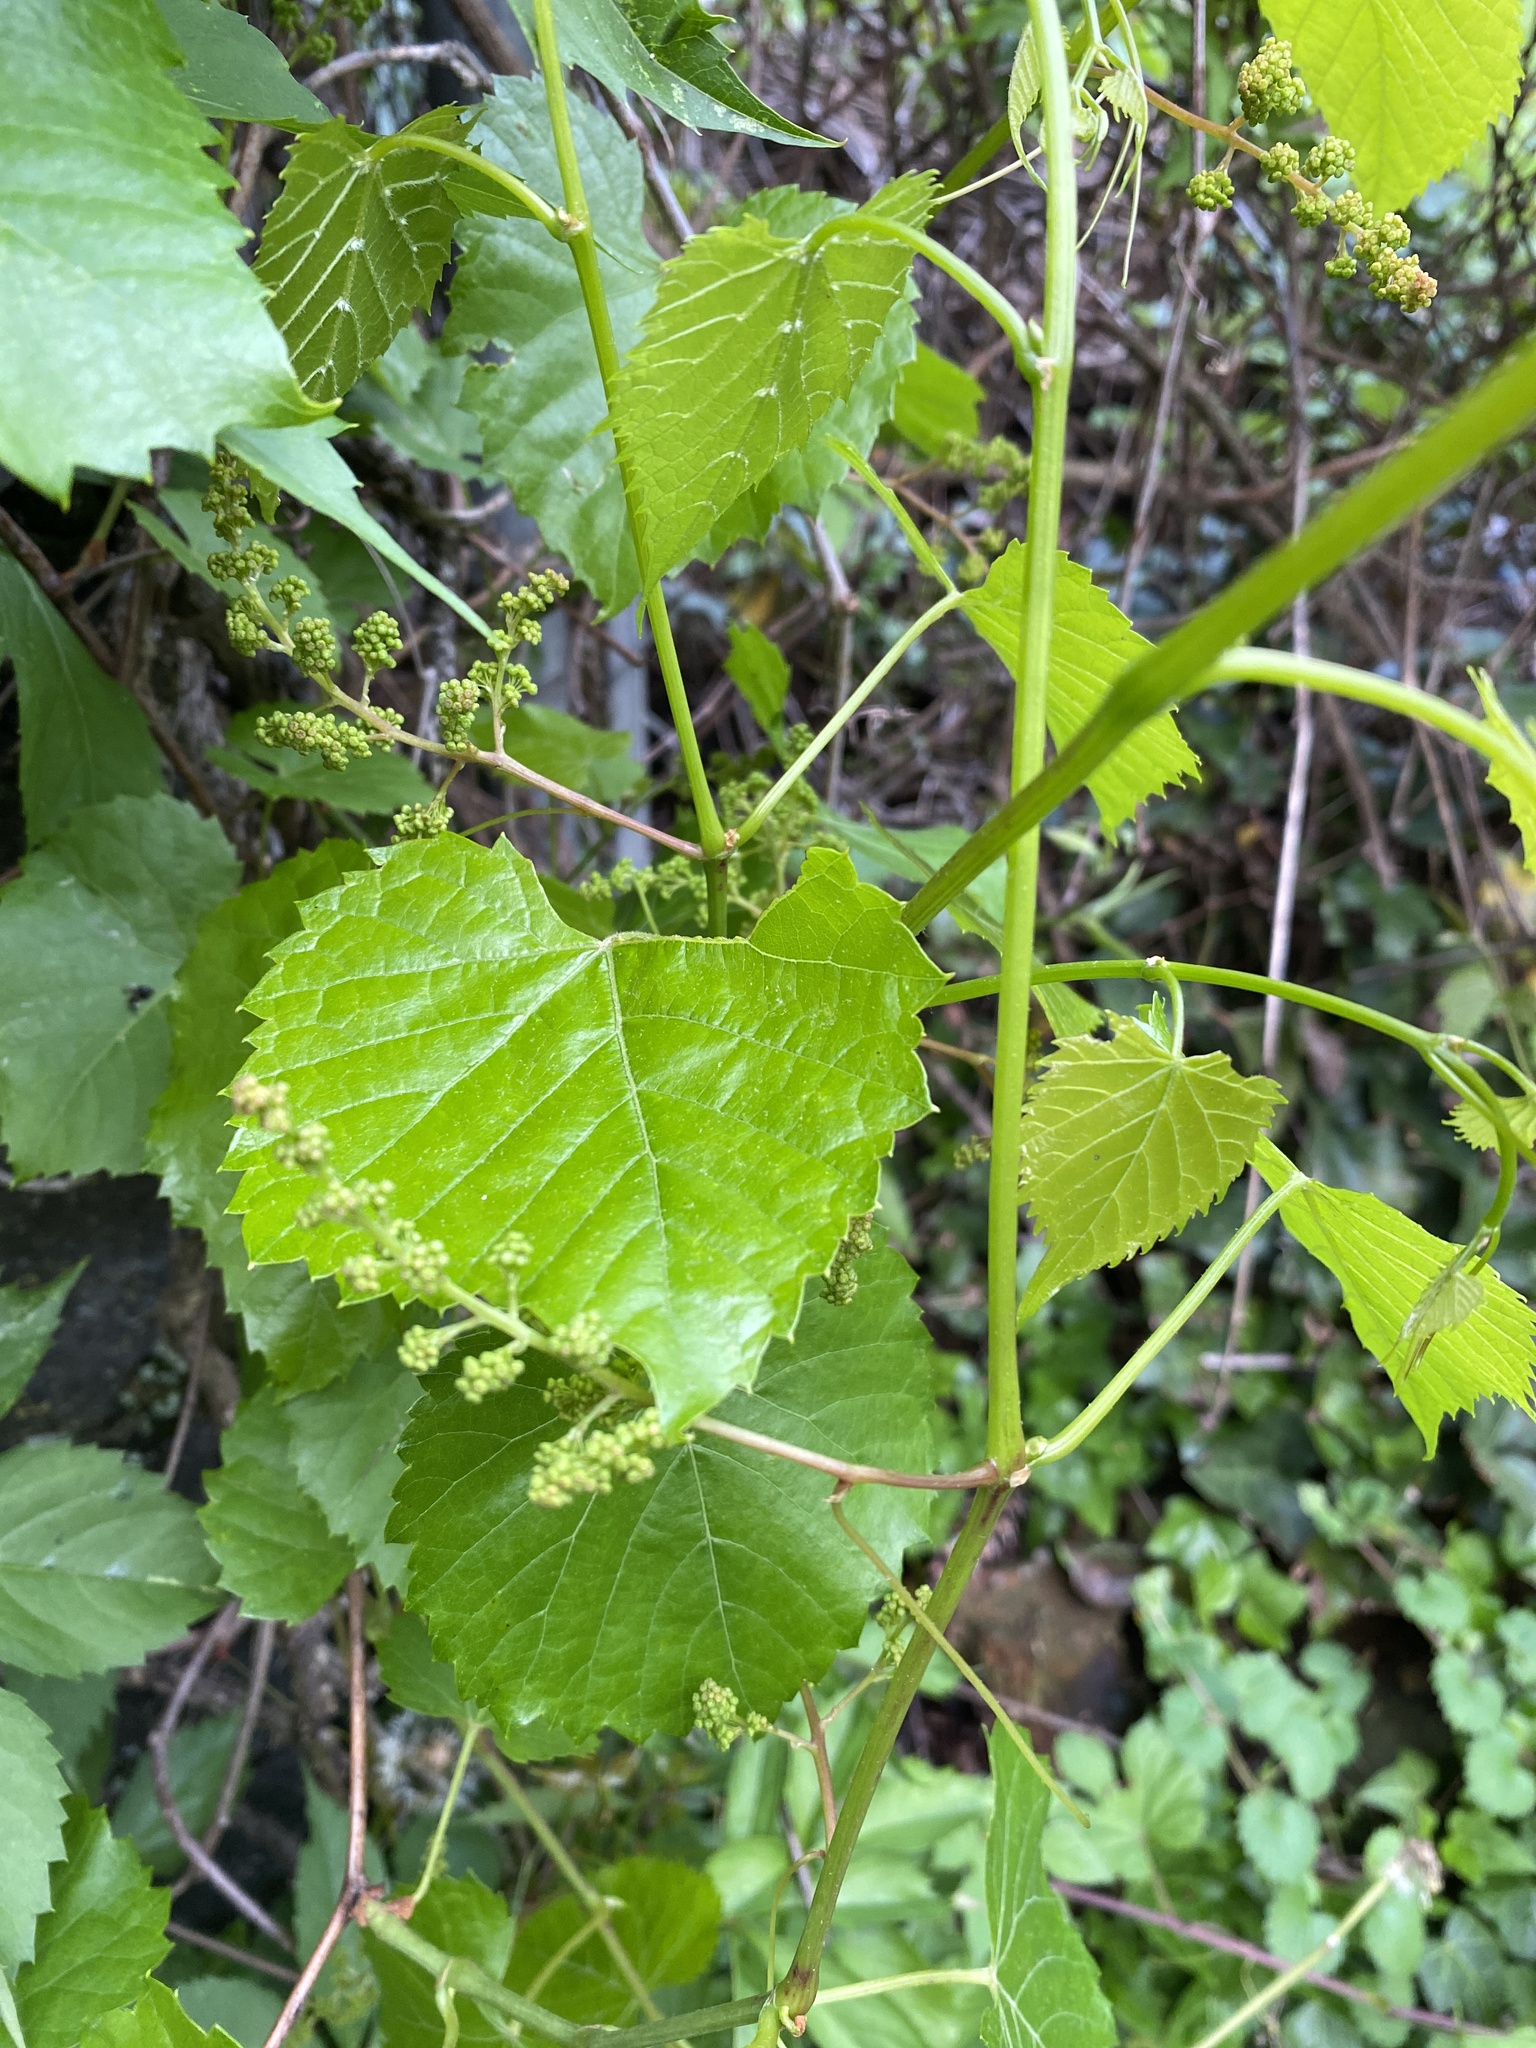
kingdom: Plantae
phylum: Tracheophyta
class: Magnoliopsida
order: Vitales
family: Vitaceae
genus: Vitis
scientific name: Vitis vulpina
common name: Frost grape
